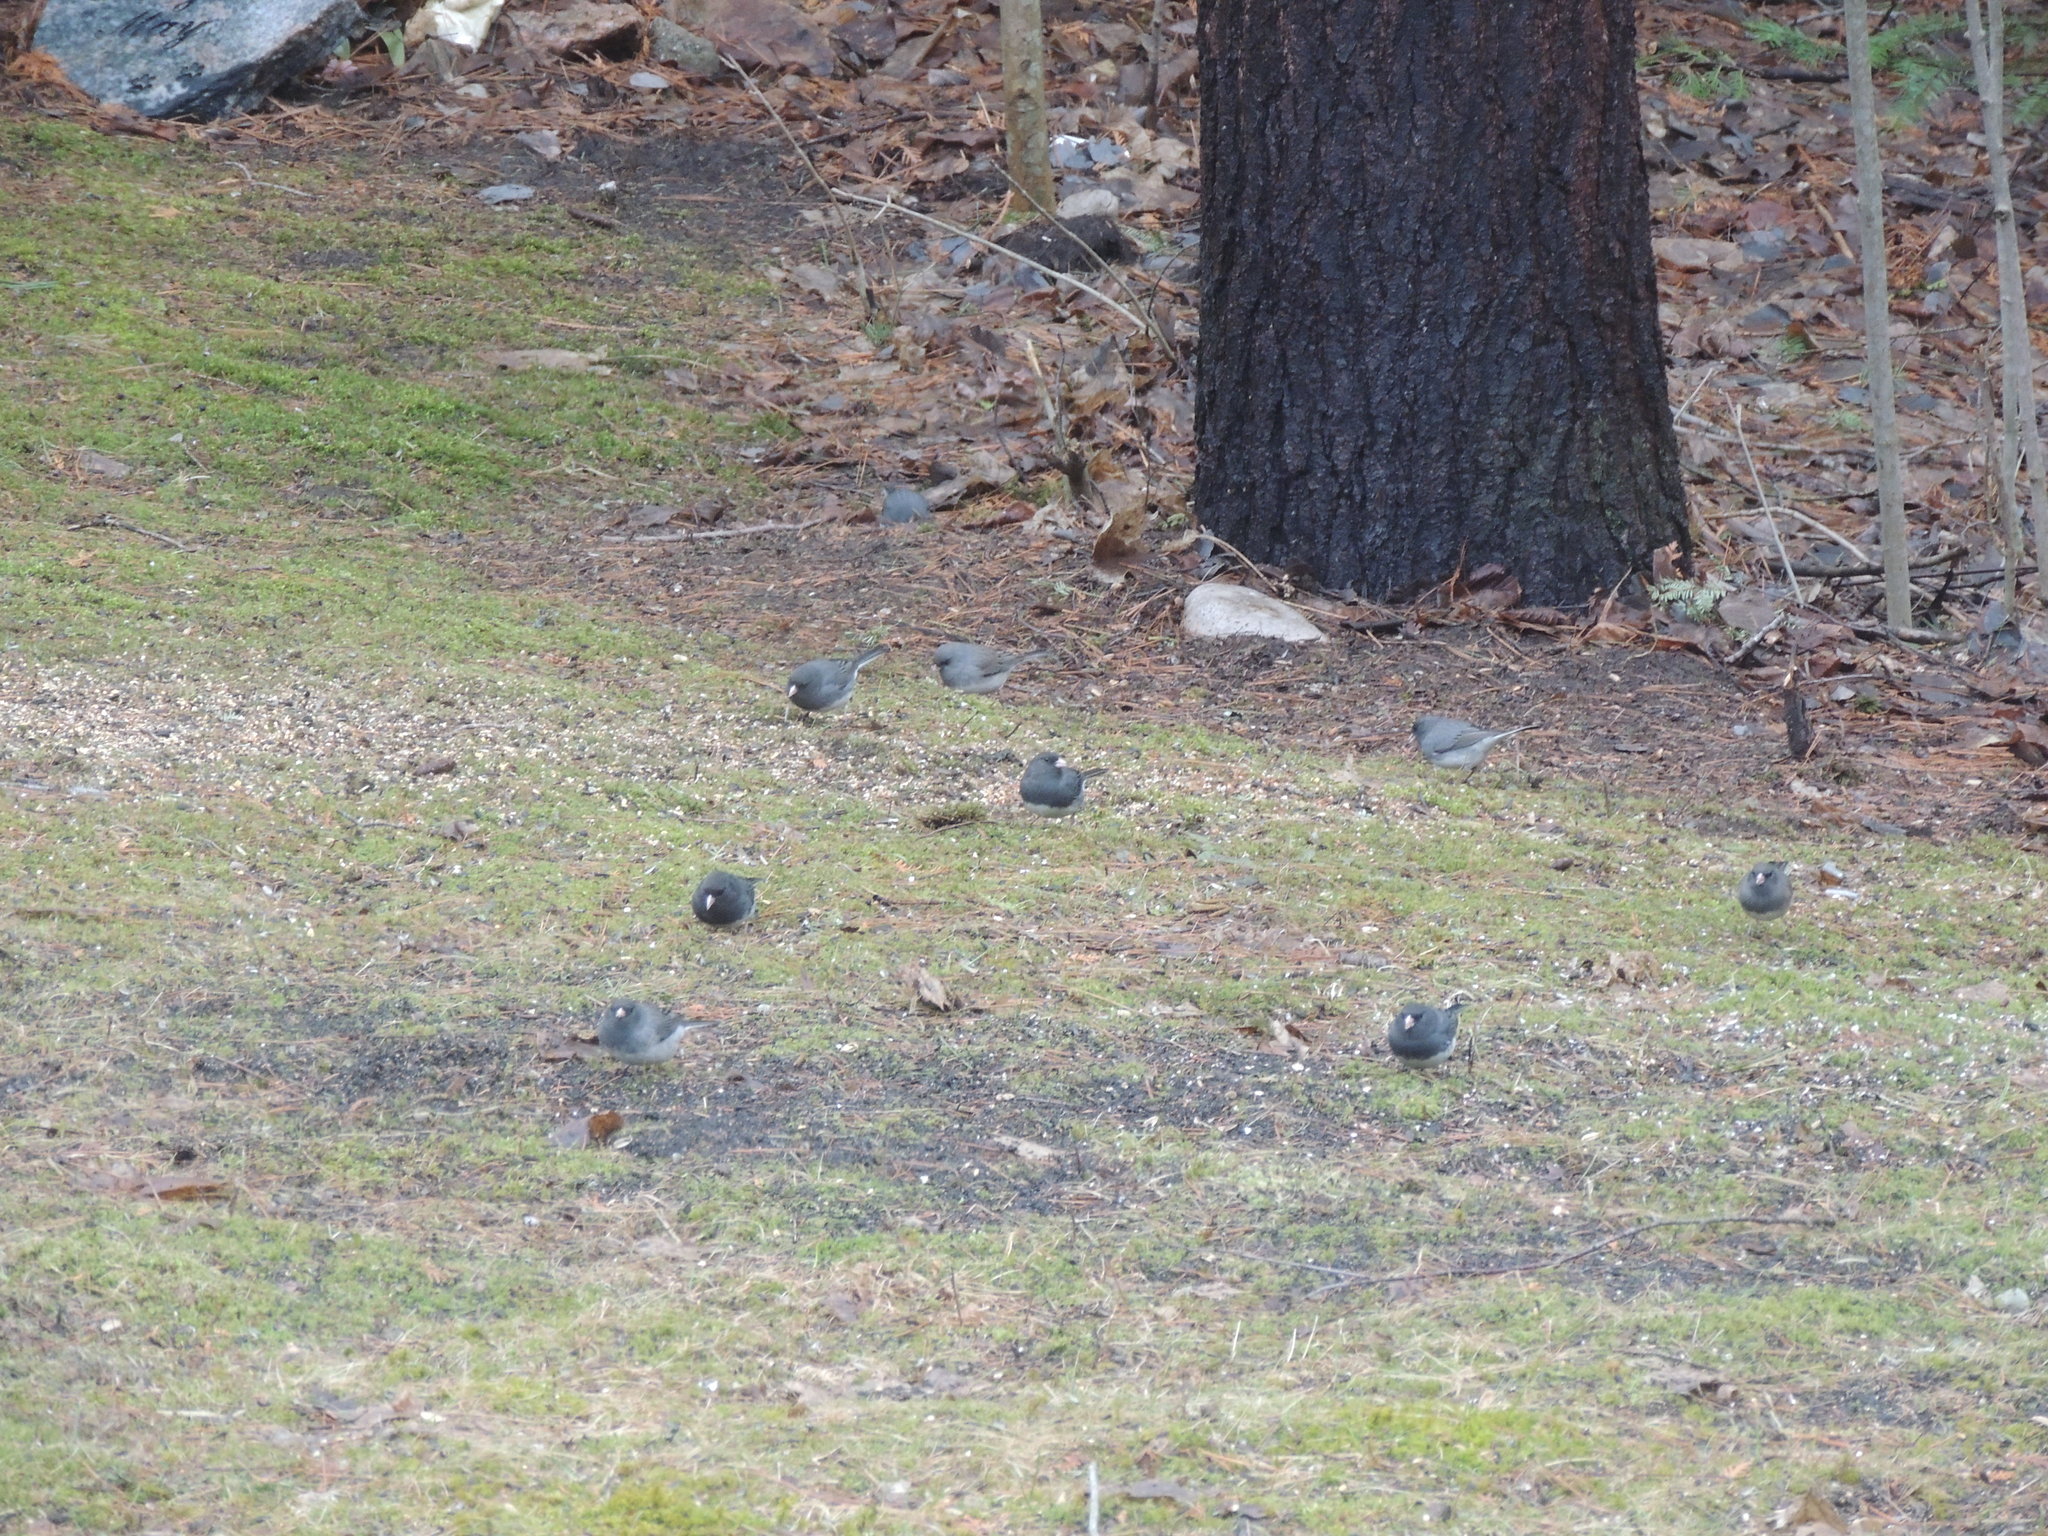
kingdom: Animalia
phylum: Chordata
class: Aves
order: Passeriformes
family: Passerellidae
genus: Junco
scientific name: Junco hyemalis
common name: Dark-eyed junco
